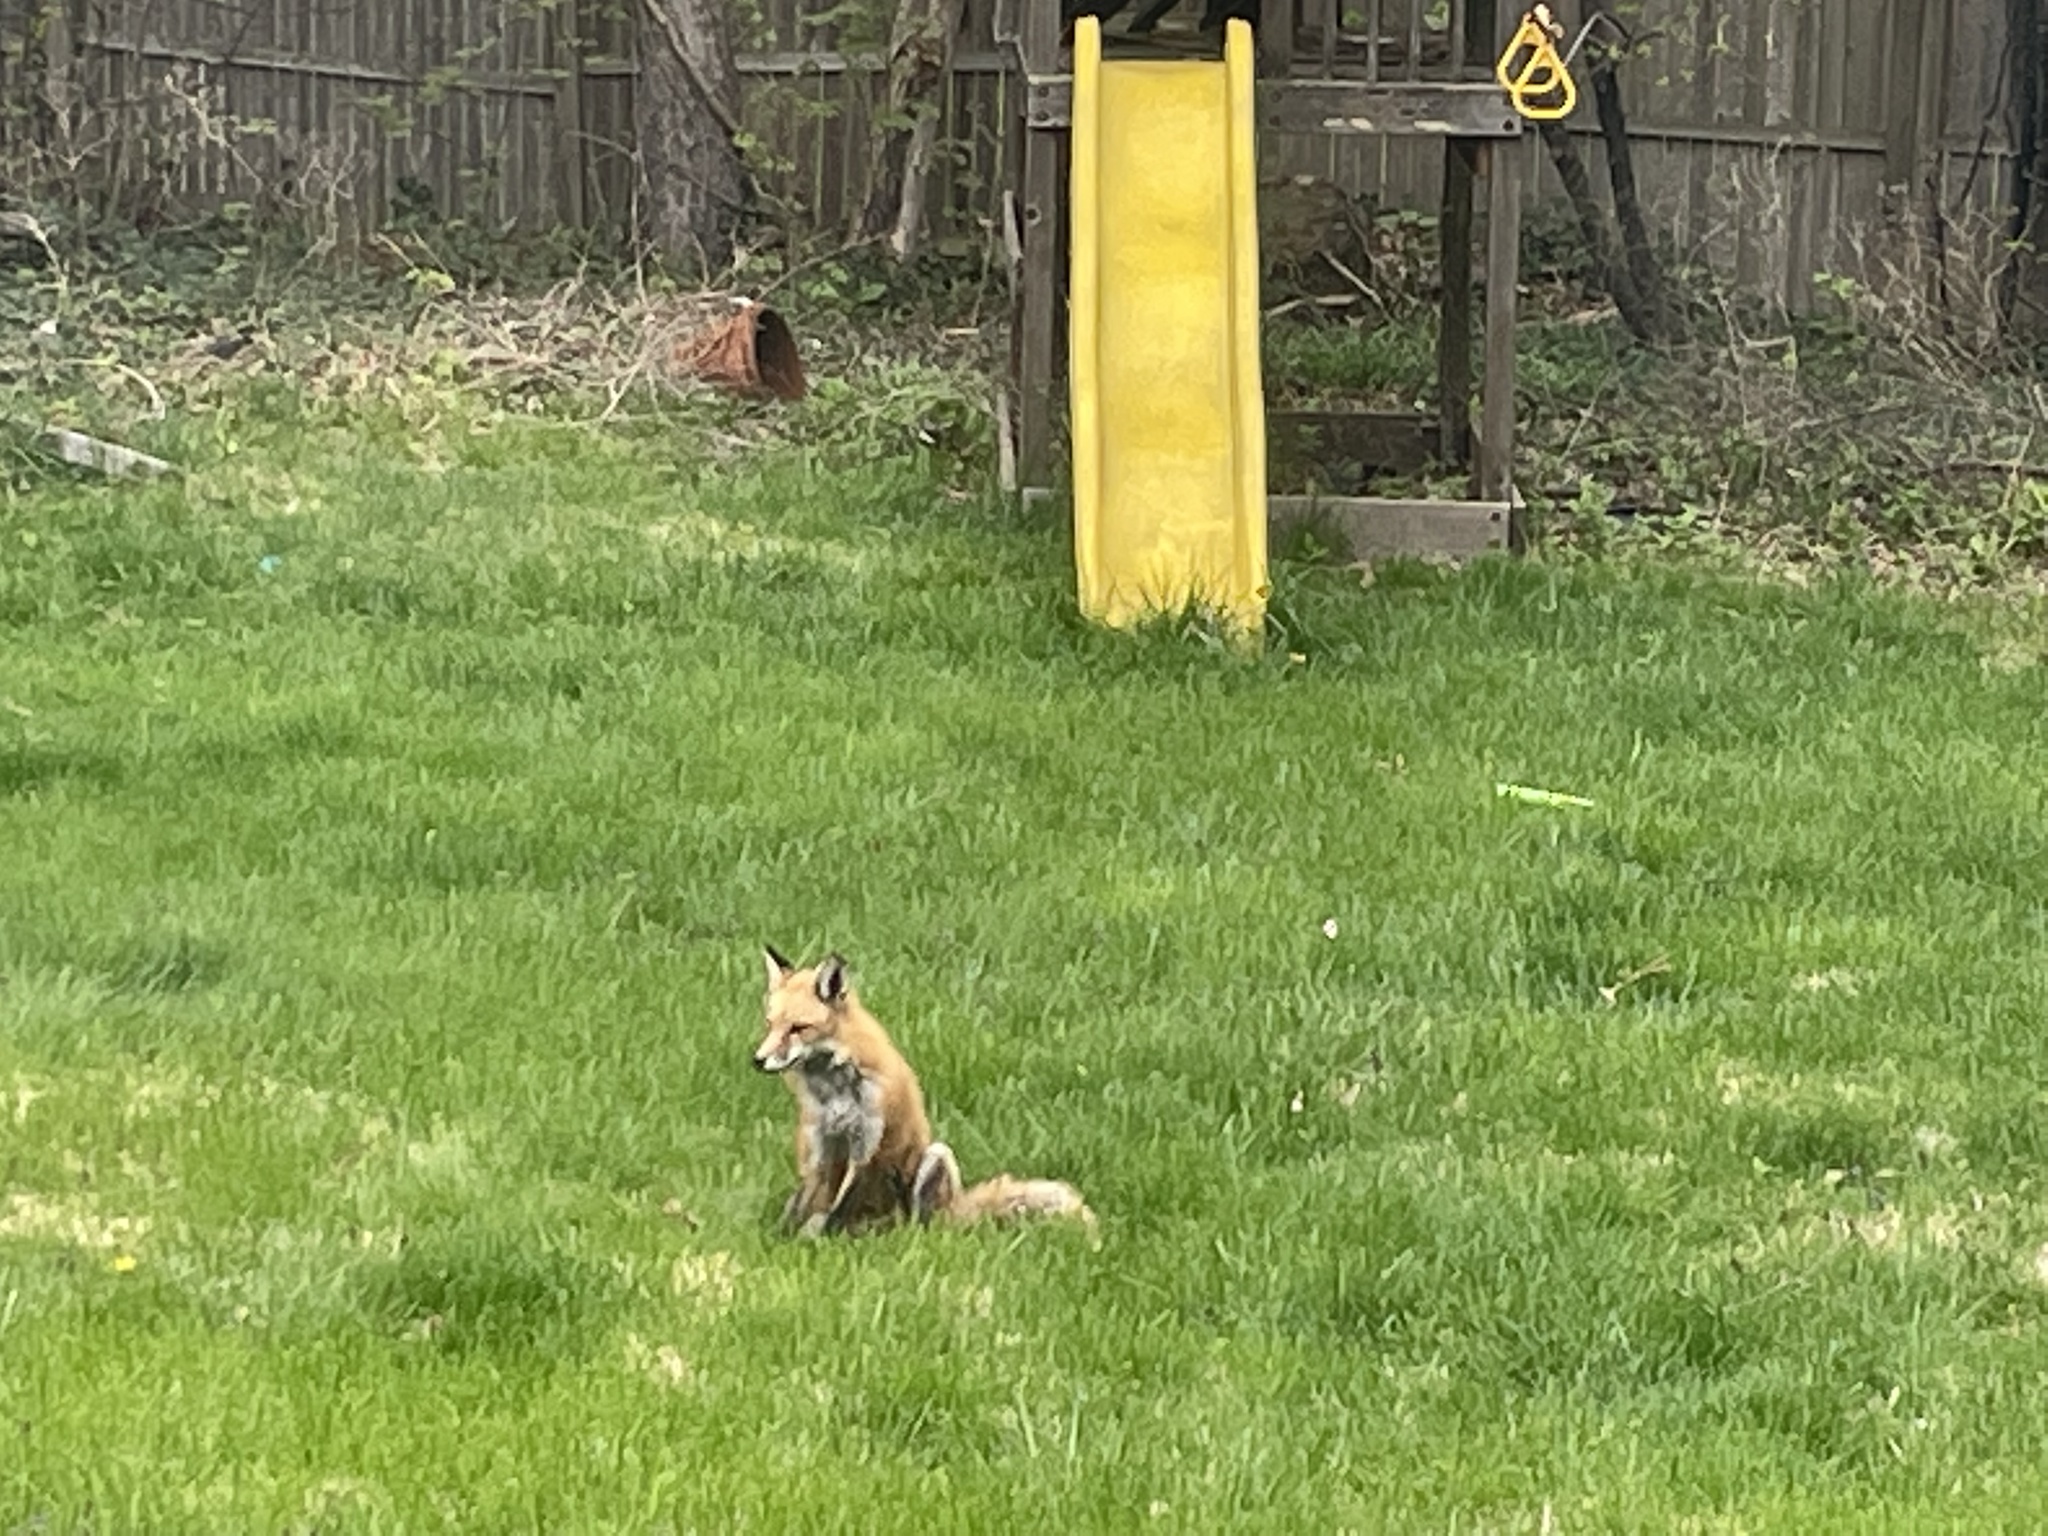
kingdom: Animalia
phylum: Chordata
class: Mammalia
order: Carnivora
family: Canidae
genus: Vulpes
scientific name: Vulpes vulpes
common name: Red fox
